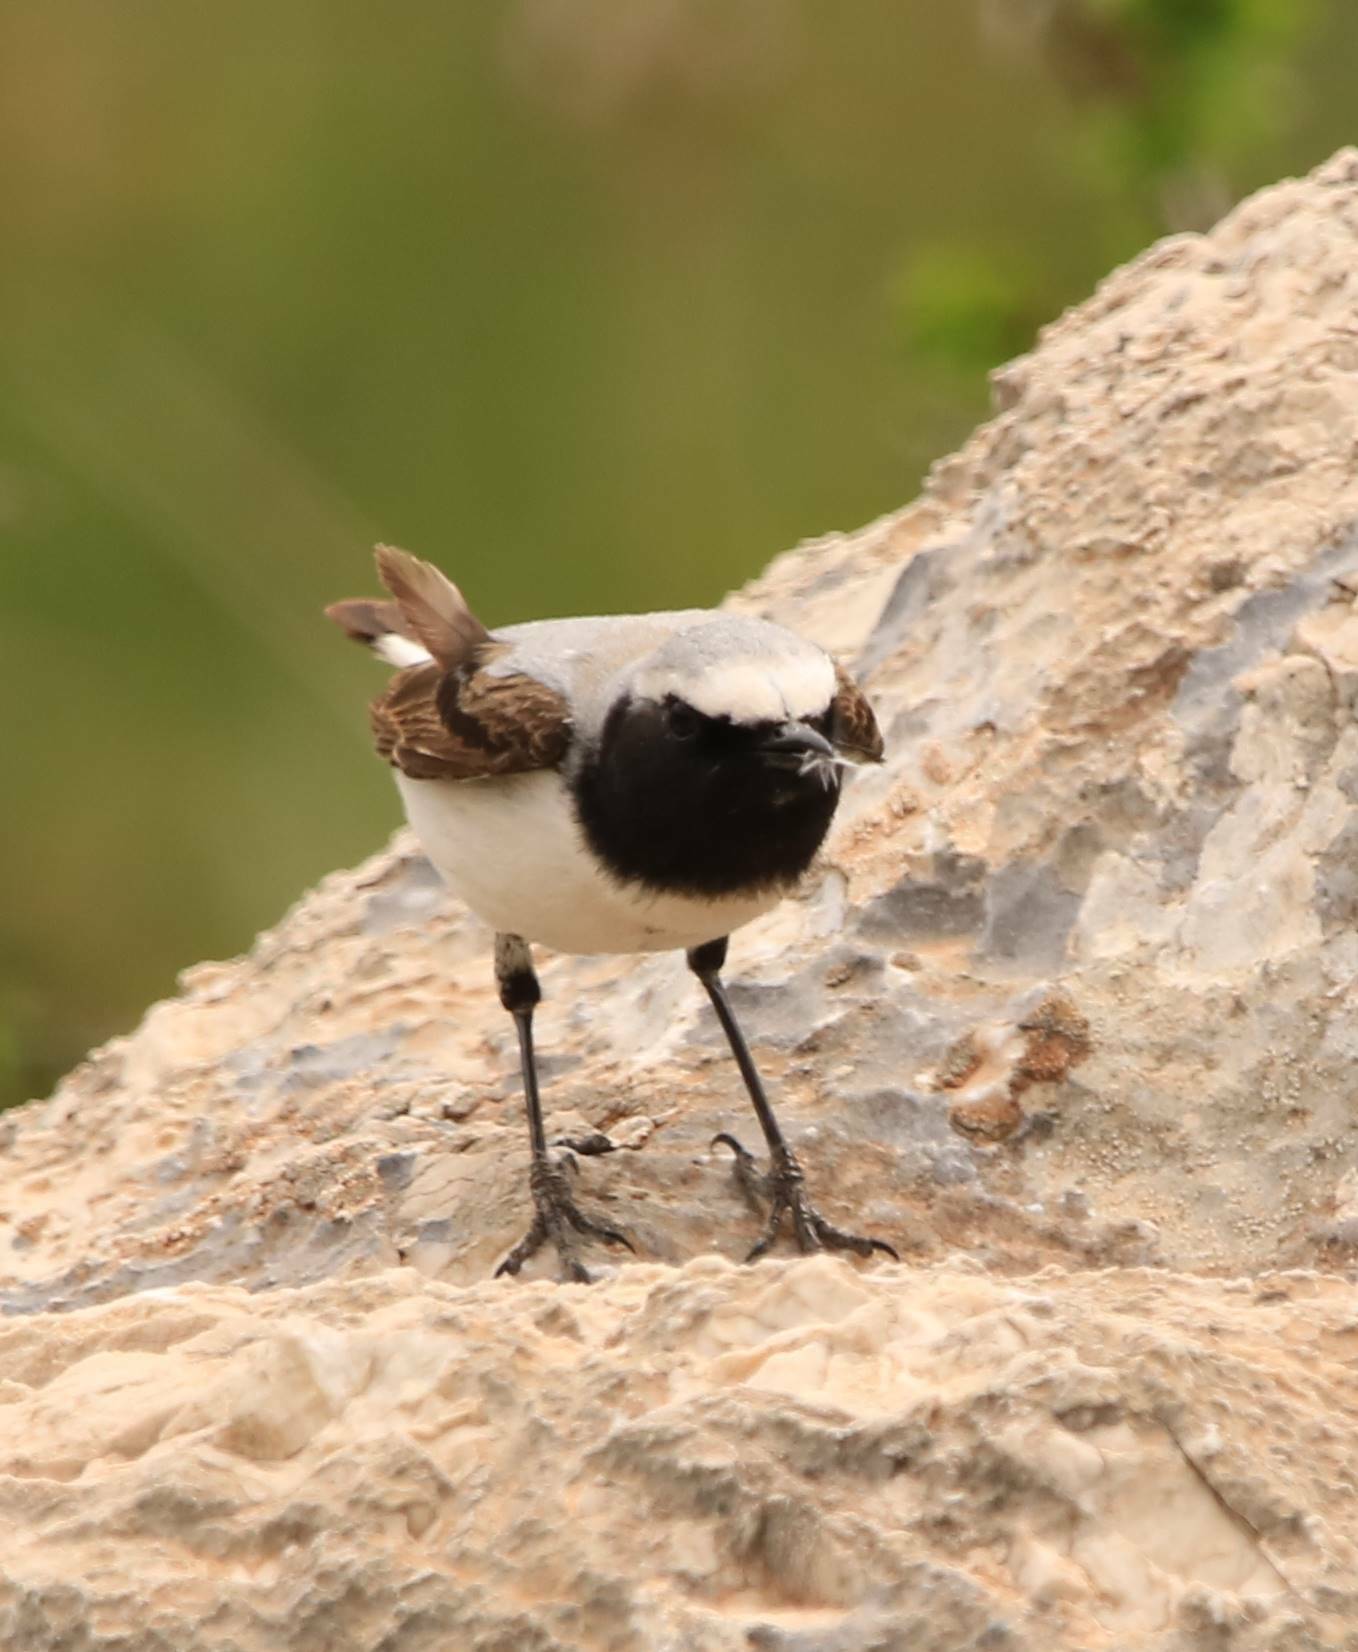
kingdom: Animalia
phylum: Chordata
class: Aves
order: Passeriformes
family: Muscicapidae
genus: Oenanthe
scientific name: Oenanthe oenanthe
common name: Northern wheatear
